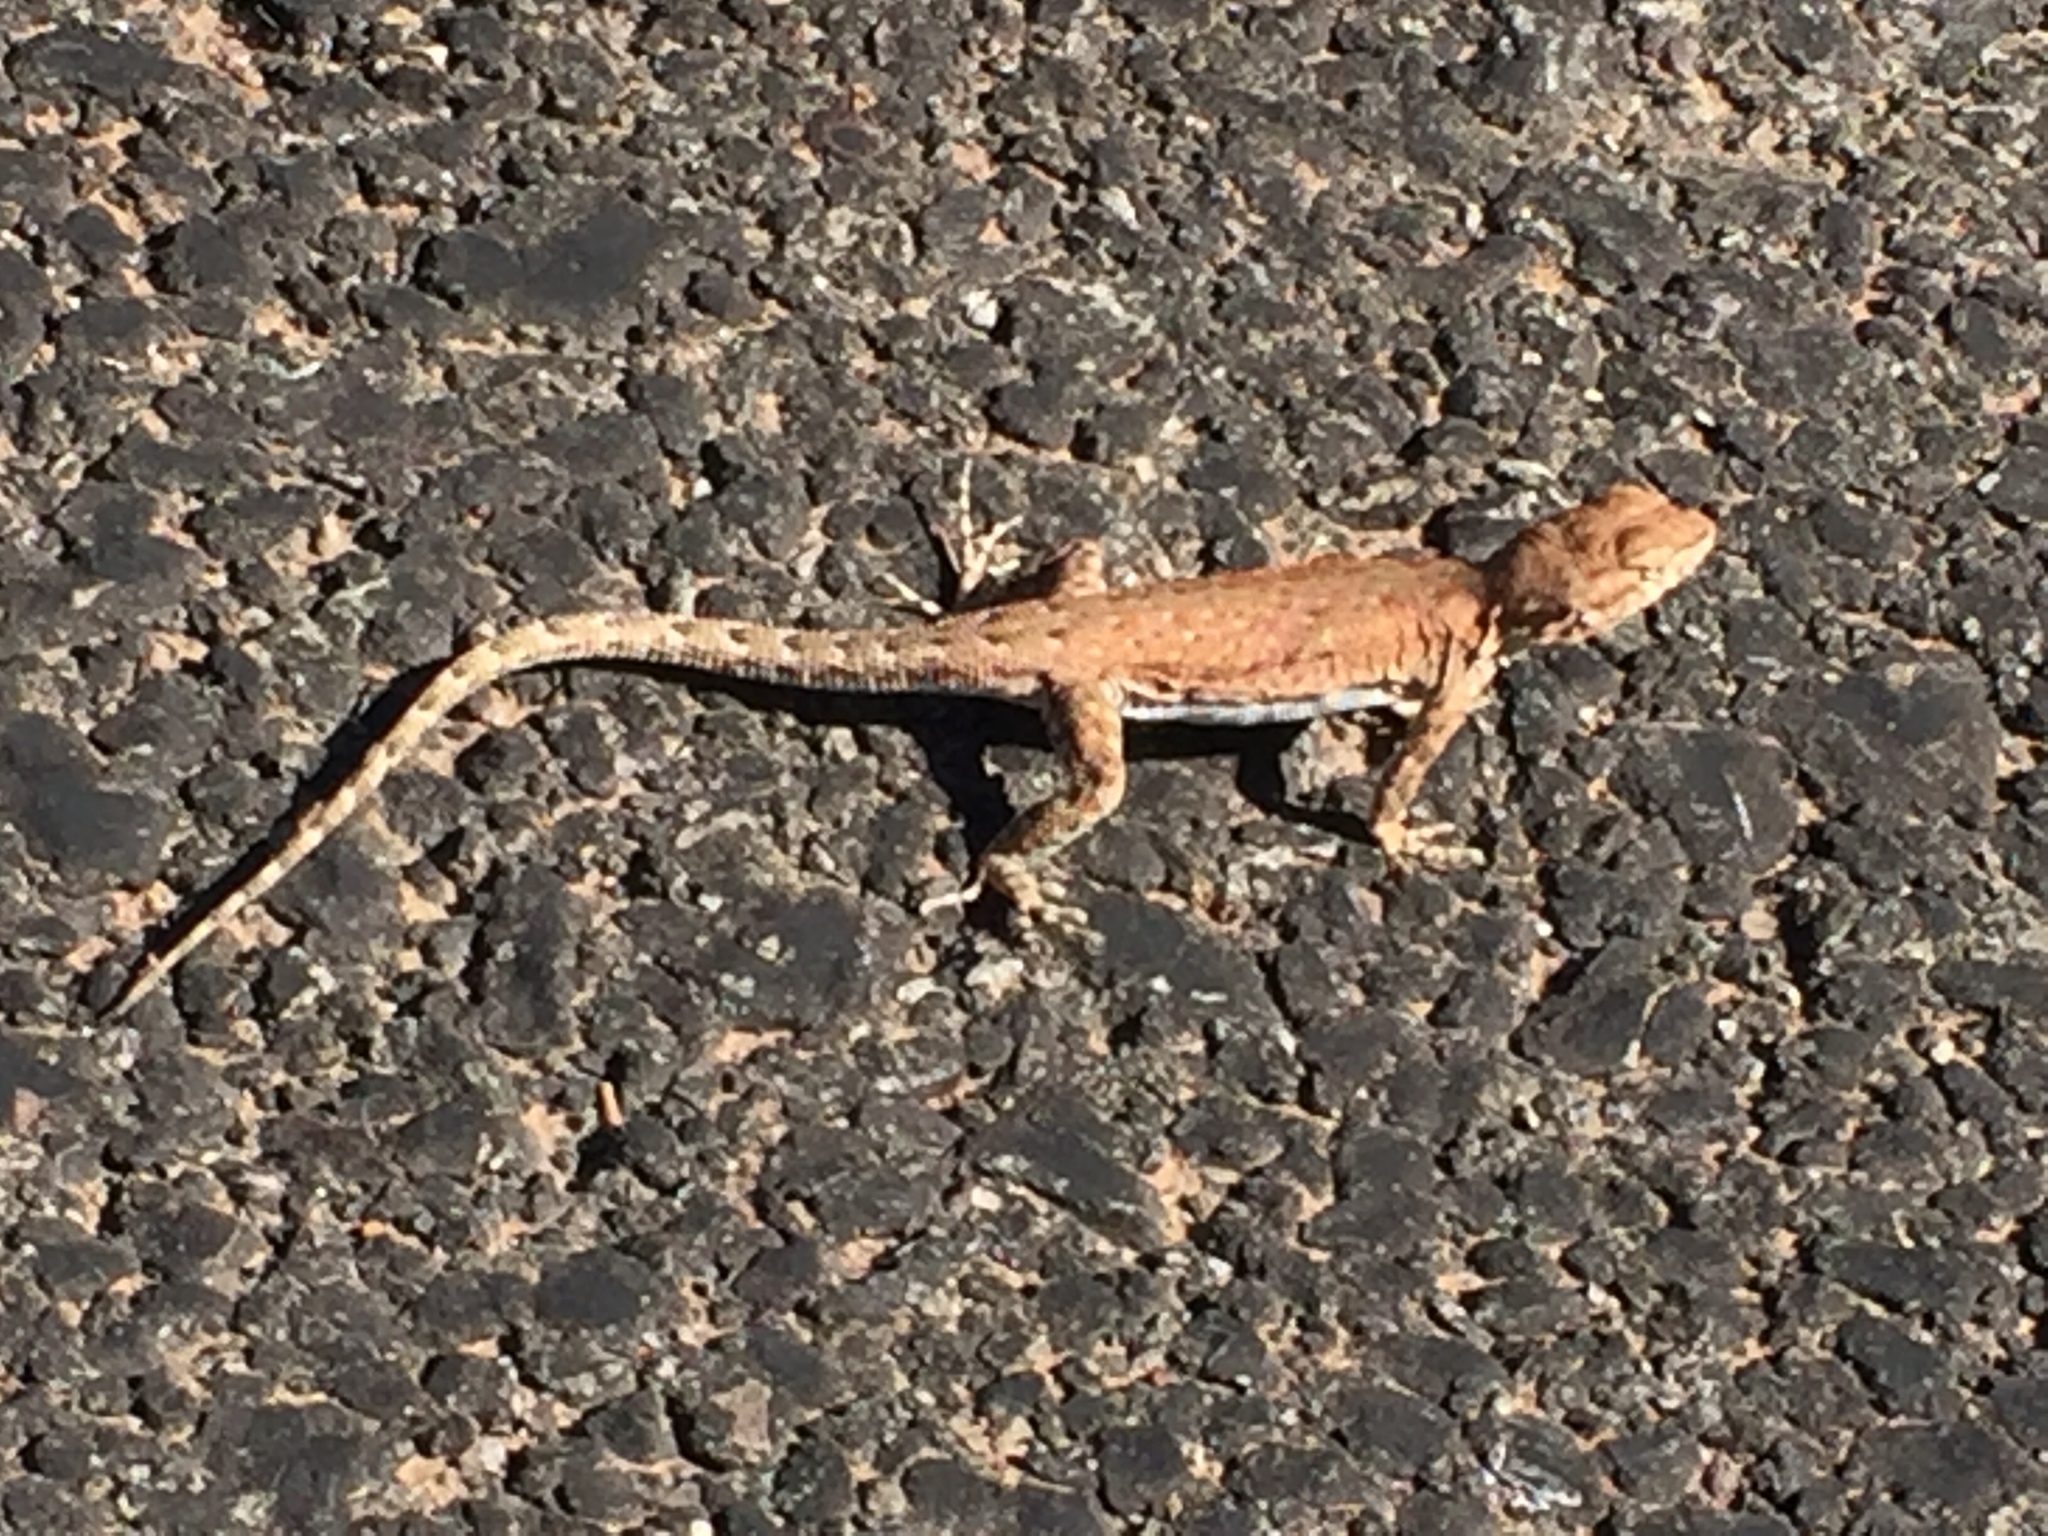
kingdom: Animalia
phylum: Chordata
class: Squamata
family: Phrynosomatidae
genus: Uta
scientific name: Uta stansburiana
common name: Side-blotched lizard
